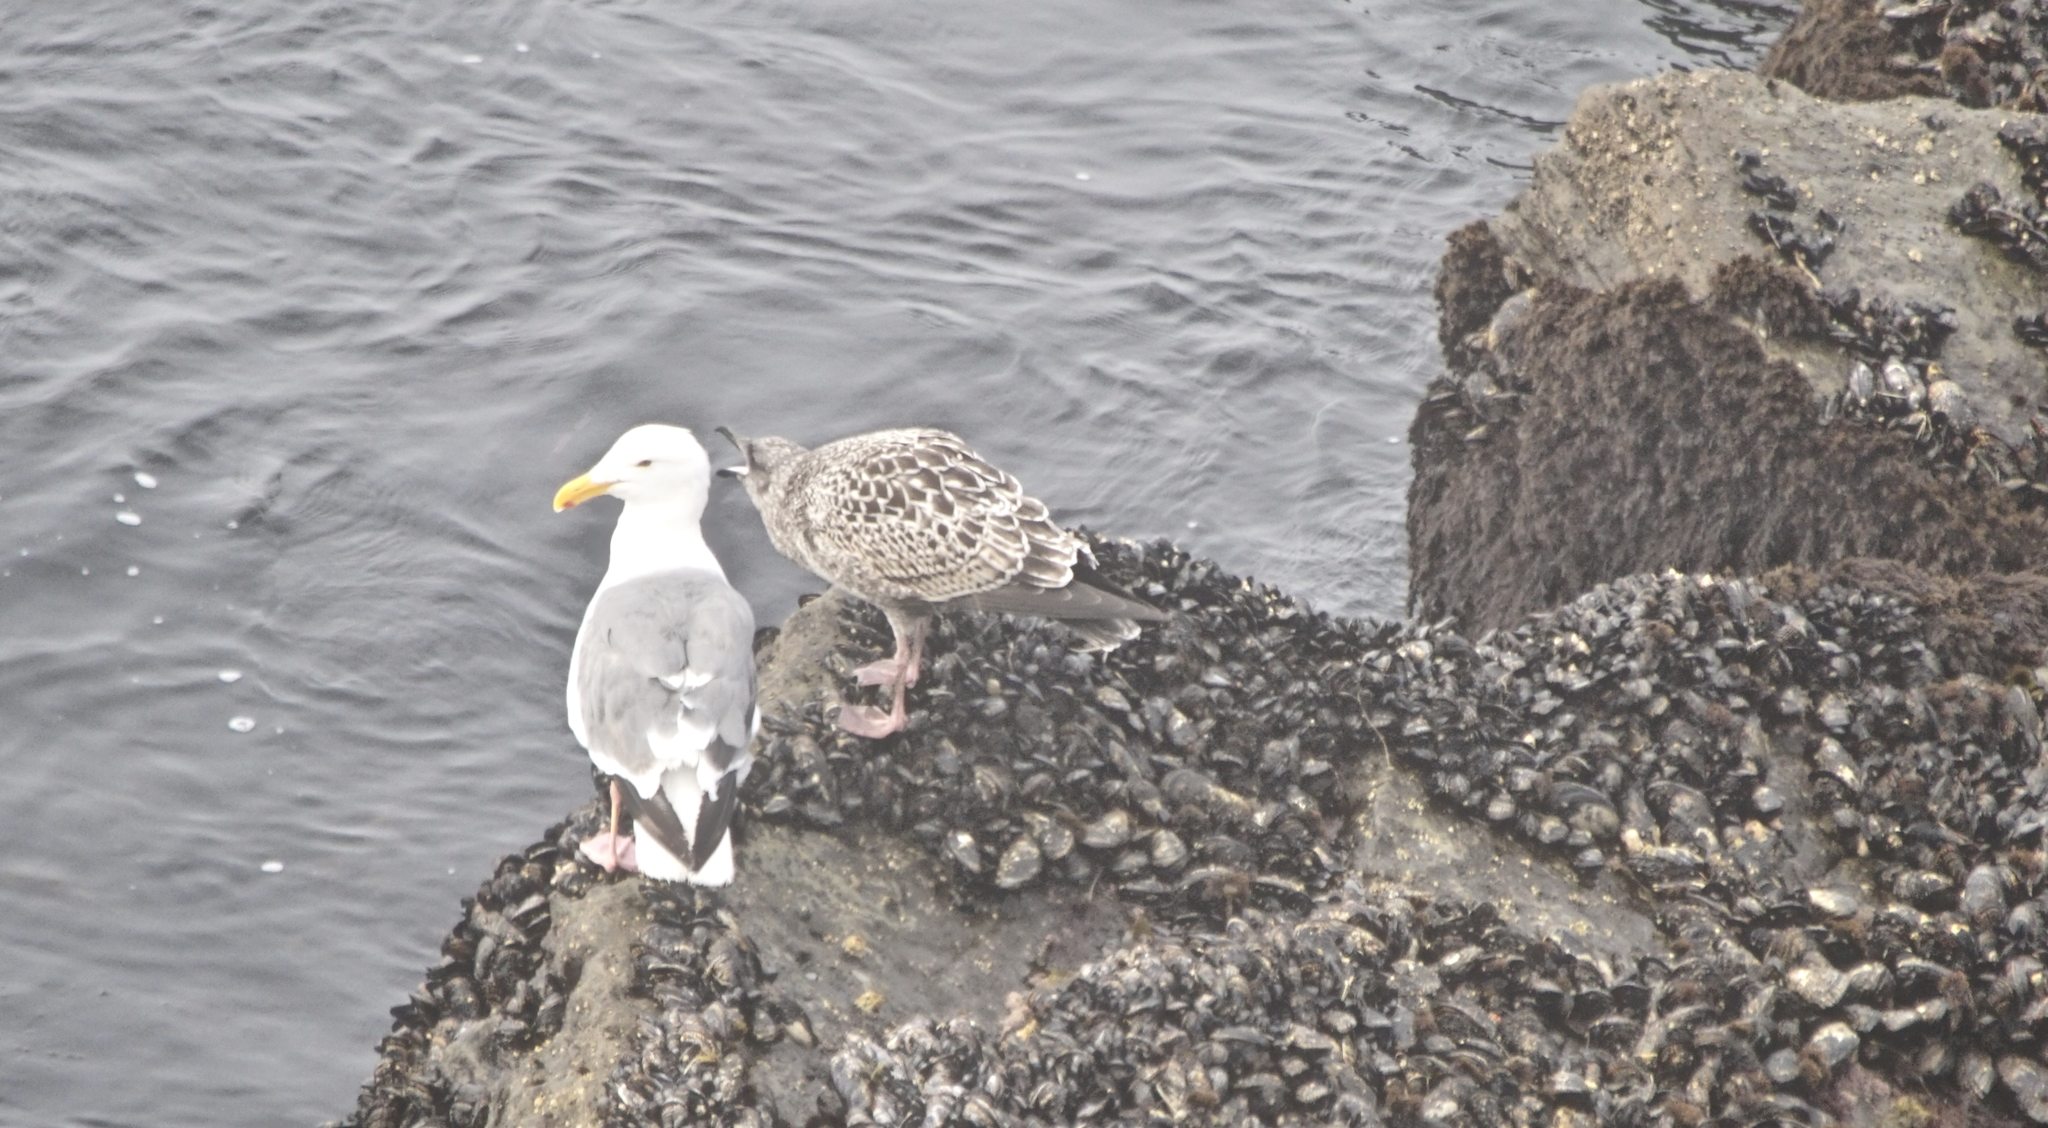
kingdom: Animalia
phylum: Chordata
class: Aves
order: Charadriiformes
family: Laridae
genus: Larus
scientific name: Larus occidentalis
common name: Western gull
